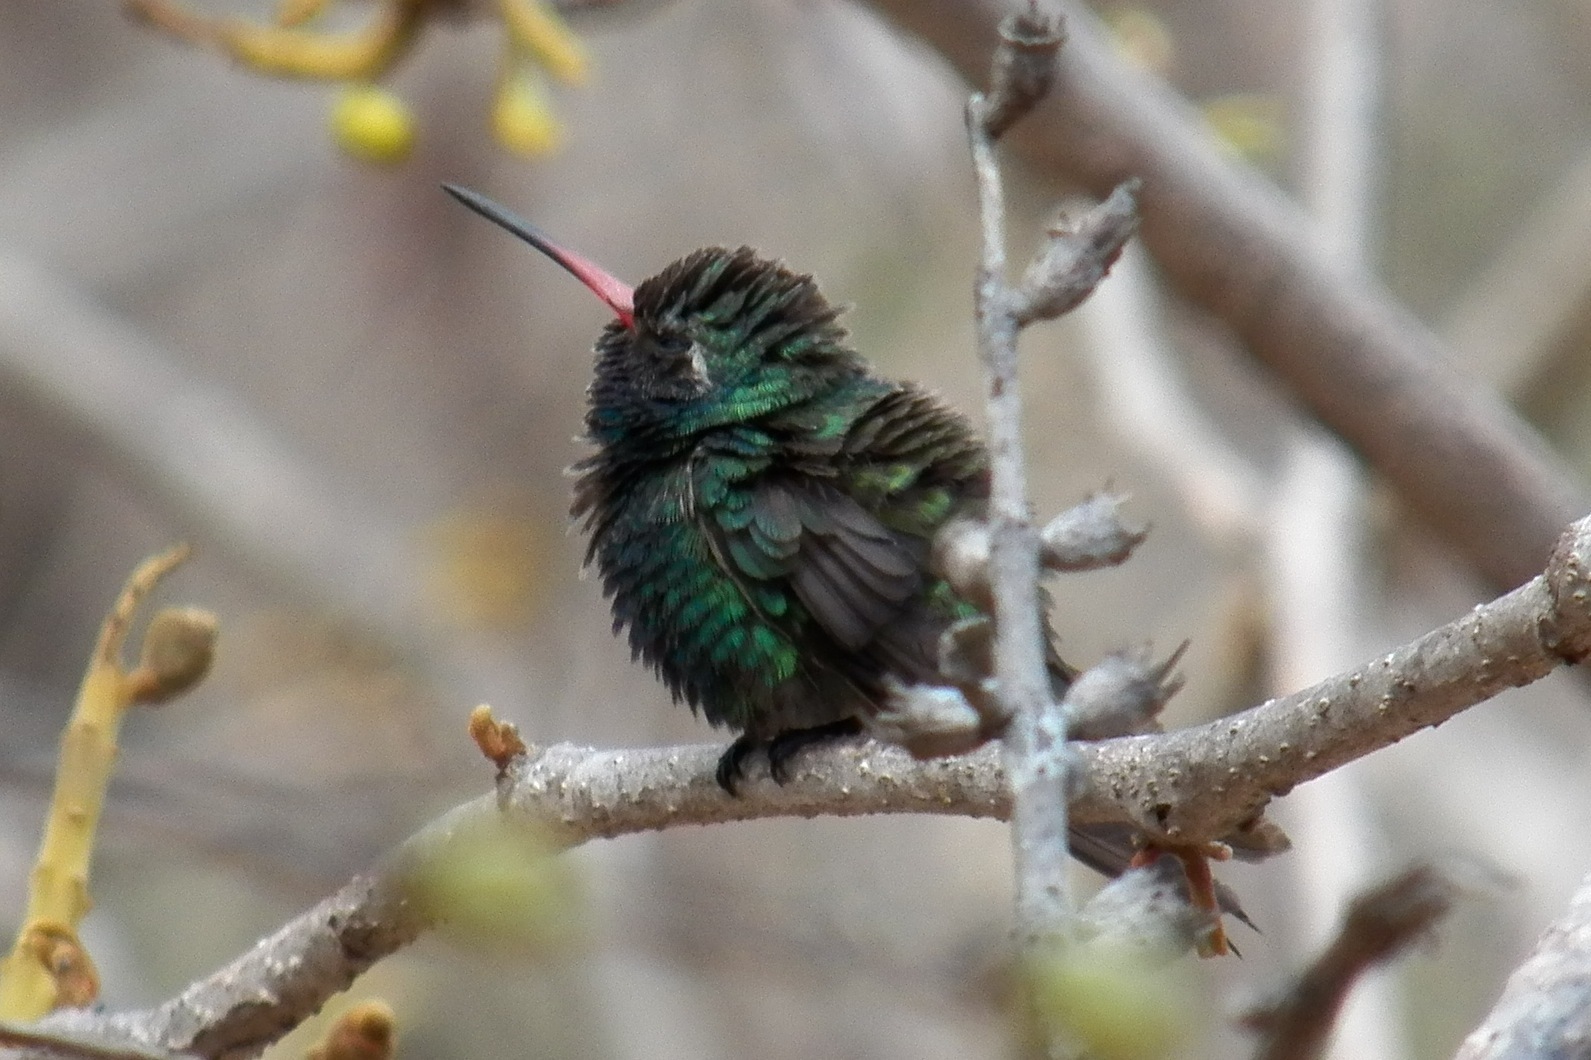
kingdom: Animalia
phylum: Chordata
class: Aves
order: Apodiformes
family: Trochilidae
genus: Cynanthus
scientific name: Cynanthus latirostris
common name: Broad-billed hummingbird
